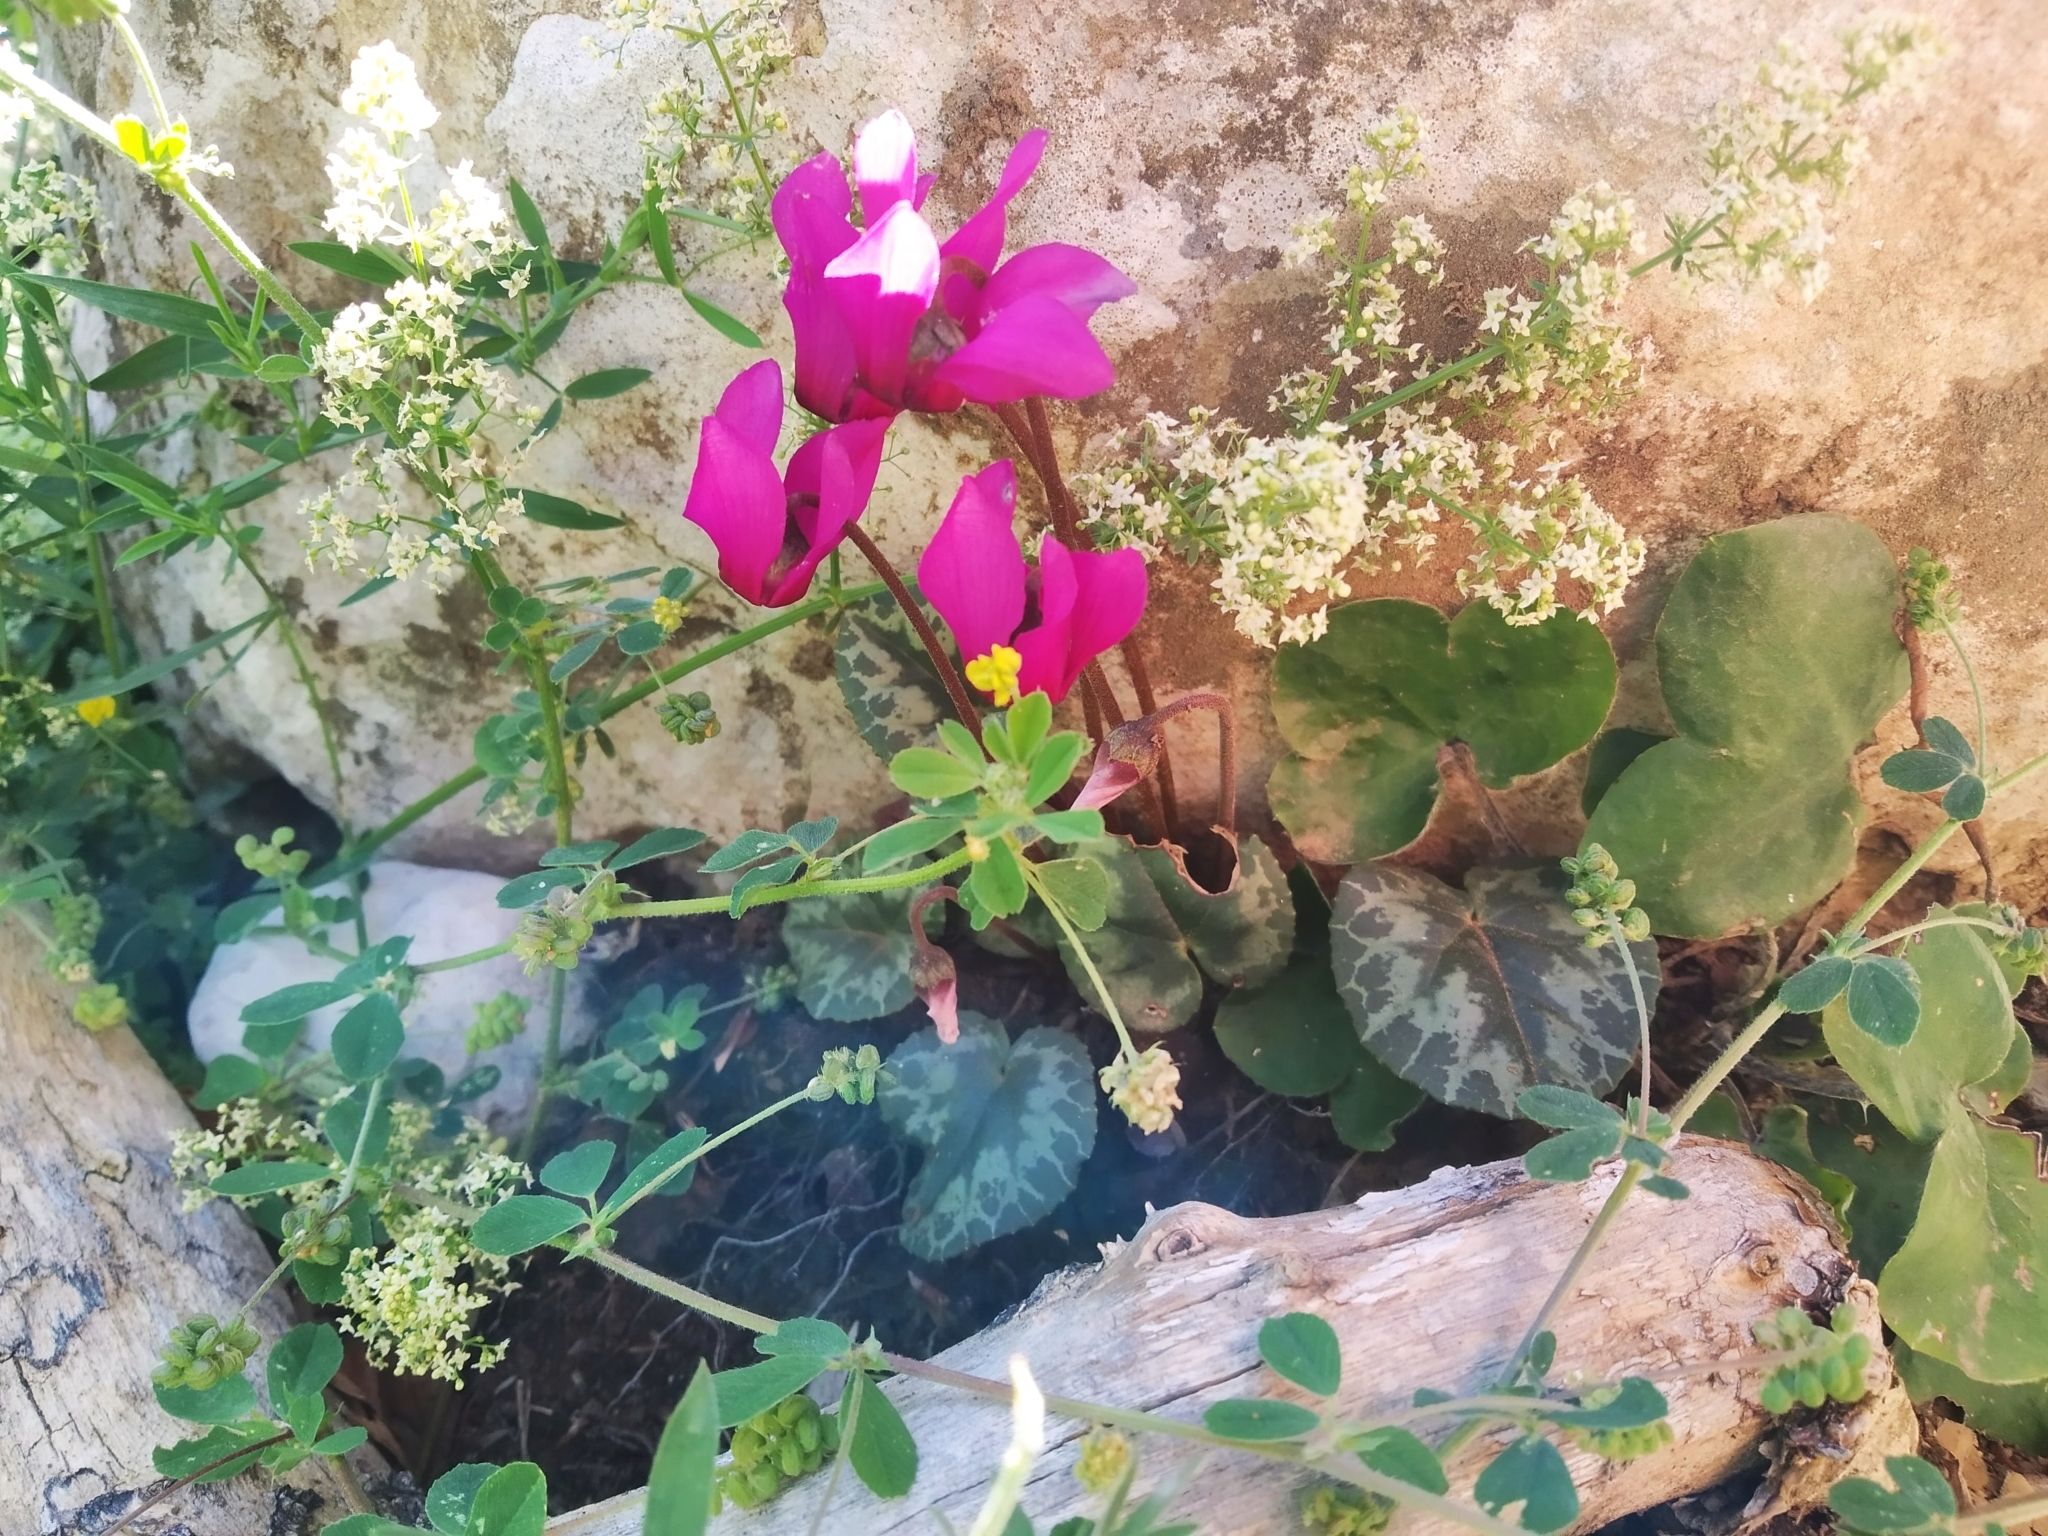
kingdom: Plantae
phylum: Tracheophyta
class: Magnoliopsida
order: Ericales
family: Primulaceae
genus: Cyclamen
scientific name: Cyclamen purpurascens
